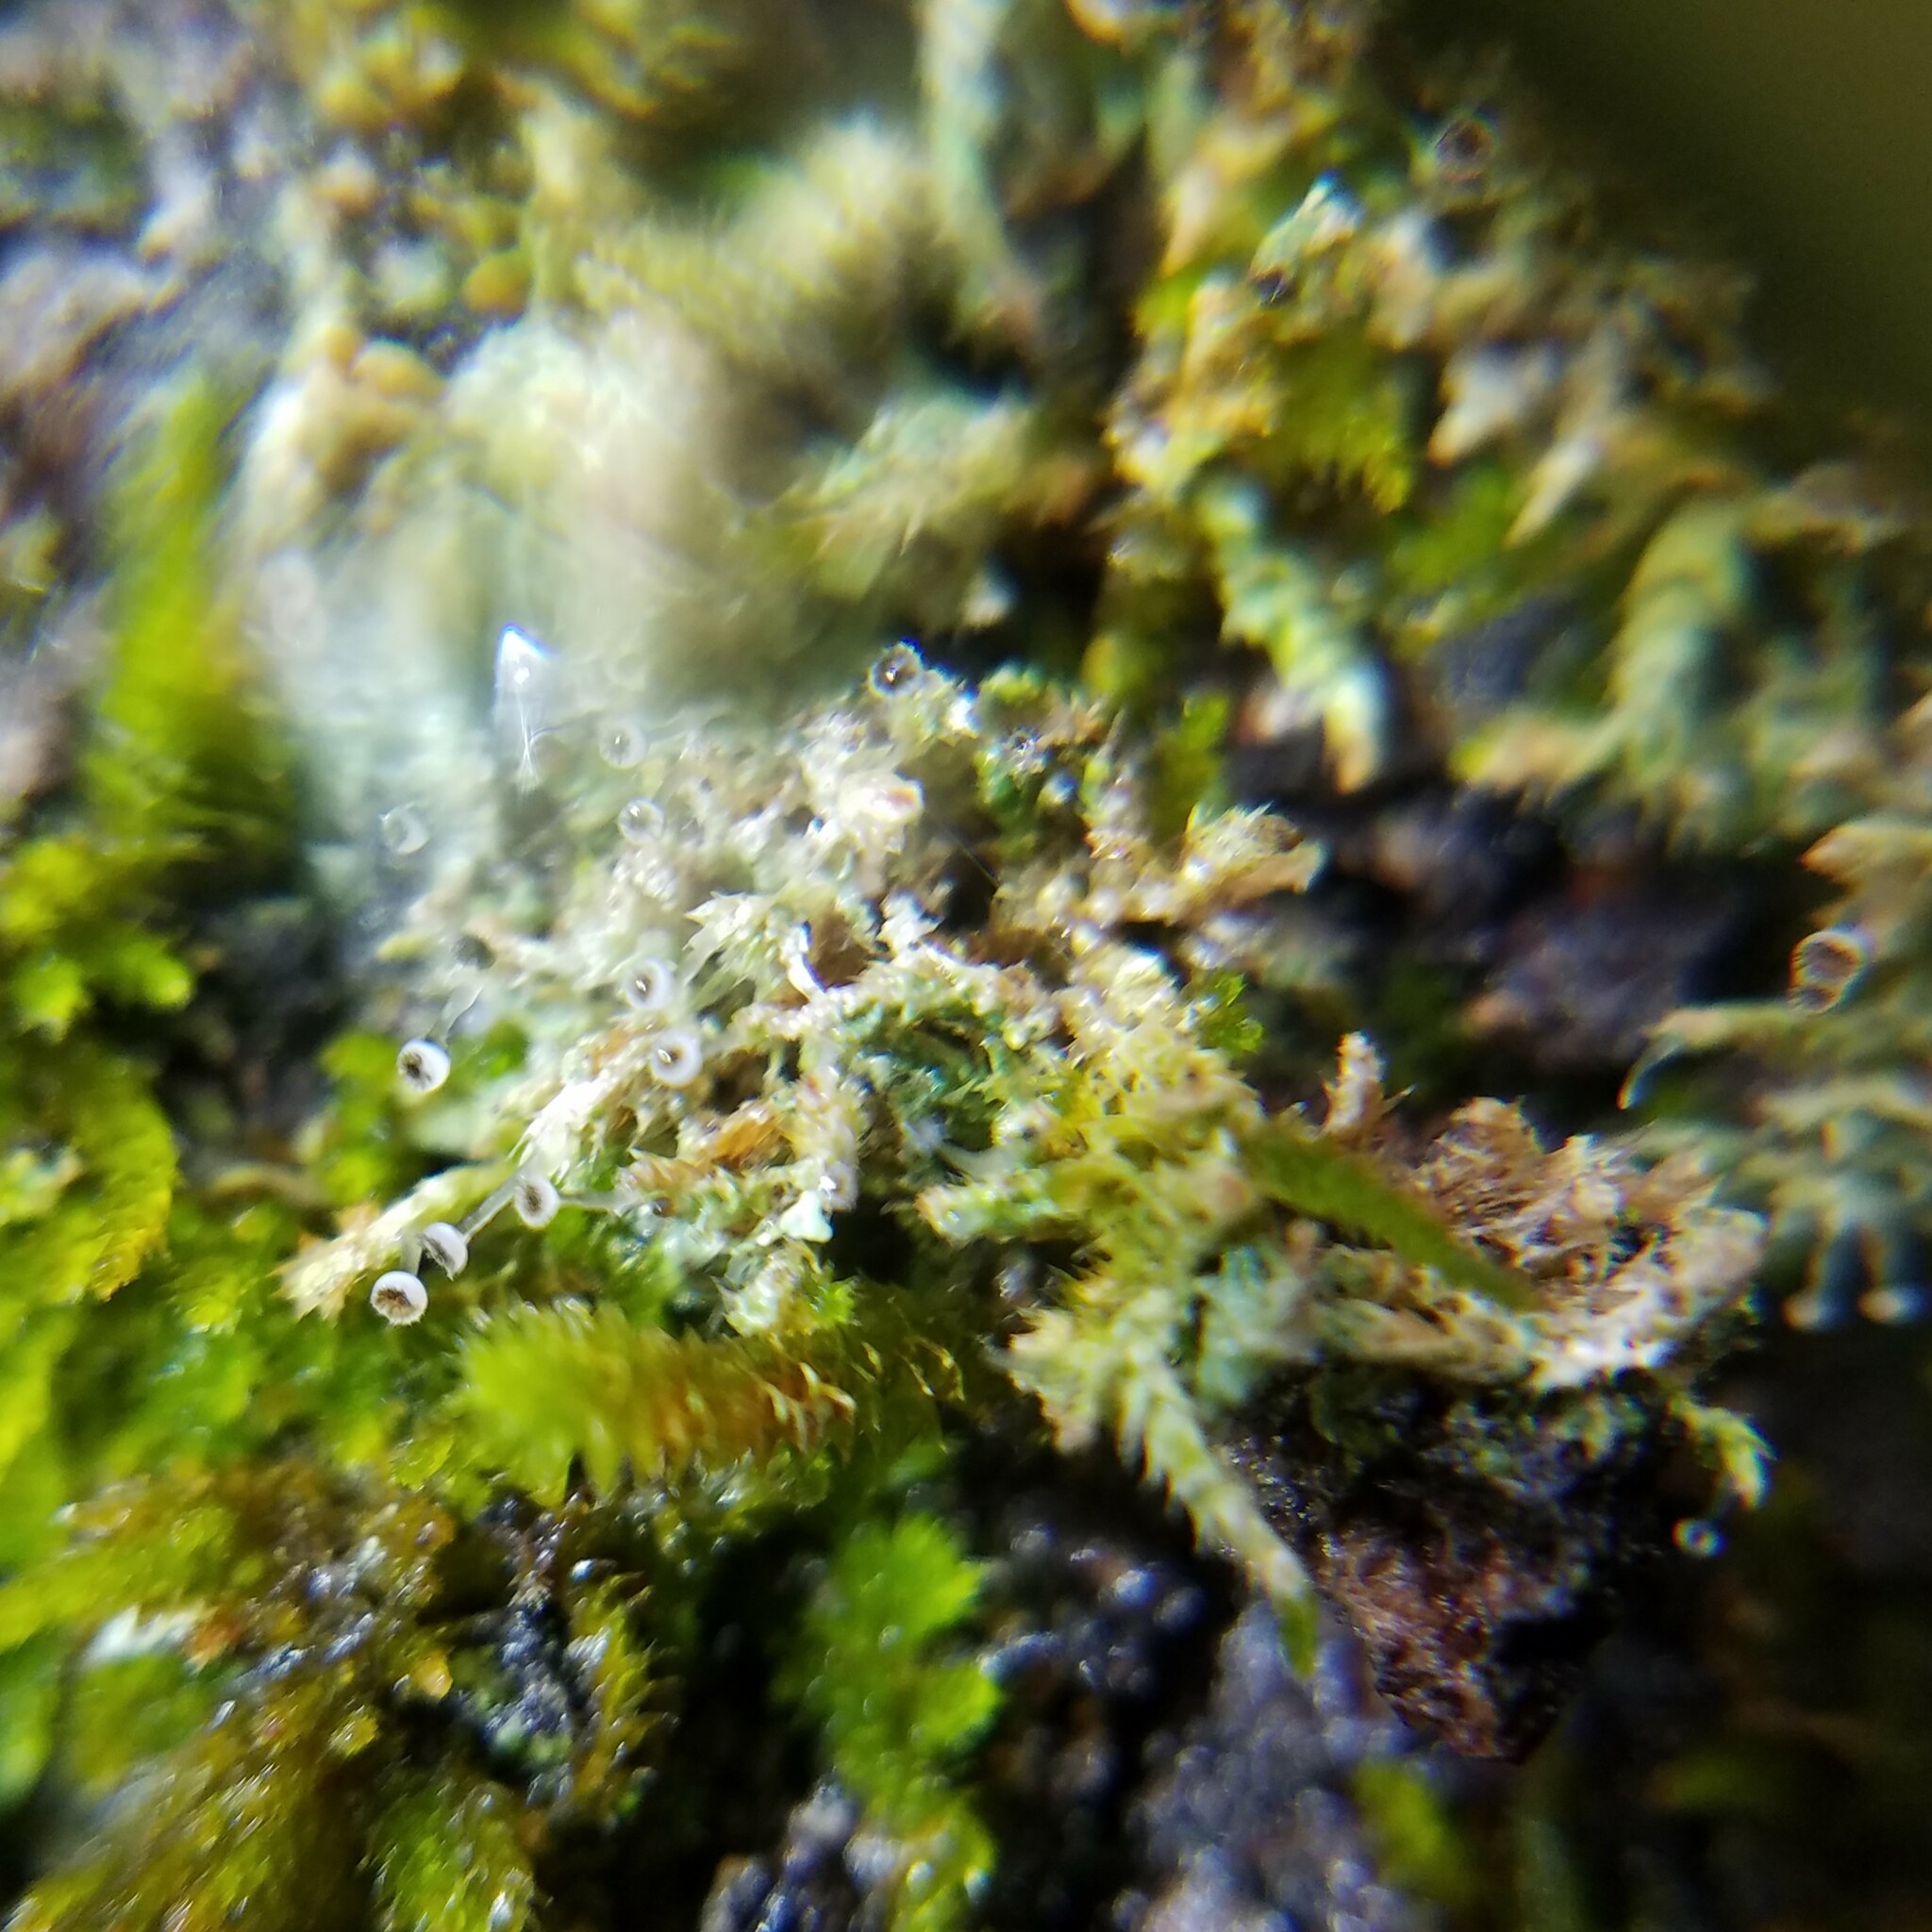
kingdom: Fungi
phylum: Ascomycota
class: Lecanoromycetes
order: Ostropales
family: Gomphillaceae
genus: Gomphillus
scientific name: Gomphillus americanus
